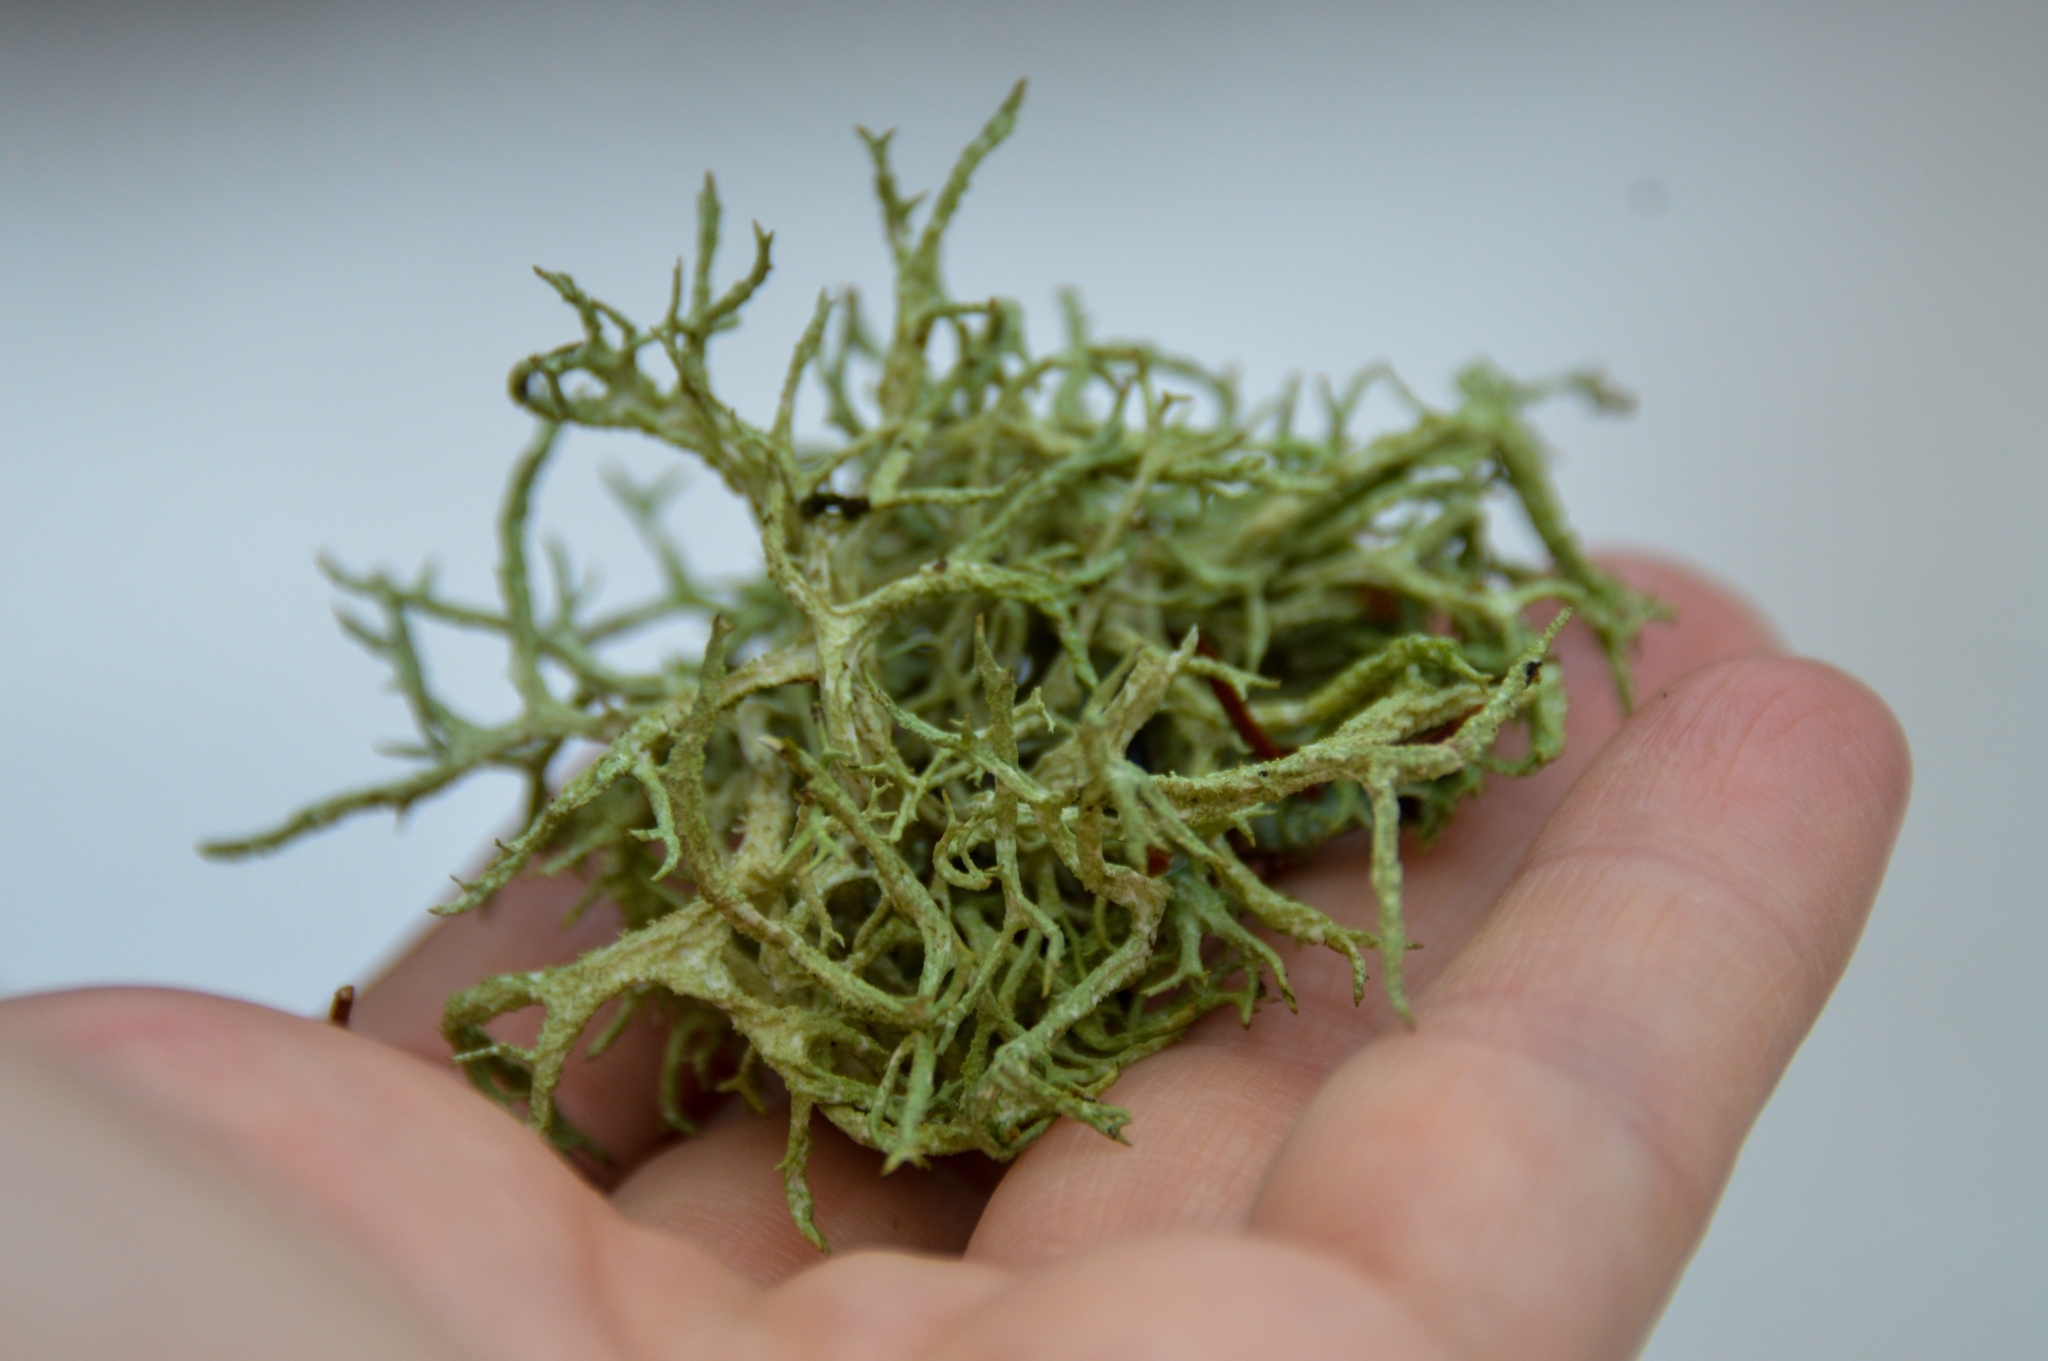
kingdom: Fungi
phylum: Ascomycota
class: Lecanoromycetes
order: Lecanorales
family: Parmeliaceae
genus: Evernia
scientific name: Evernia mesomorpha
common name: Boreal oak moss lichen
